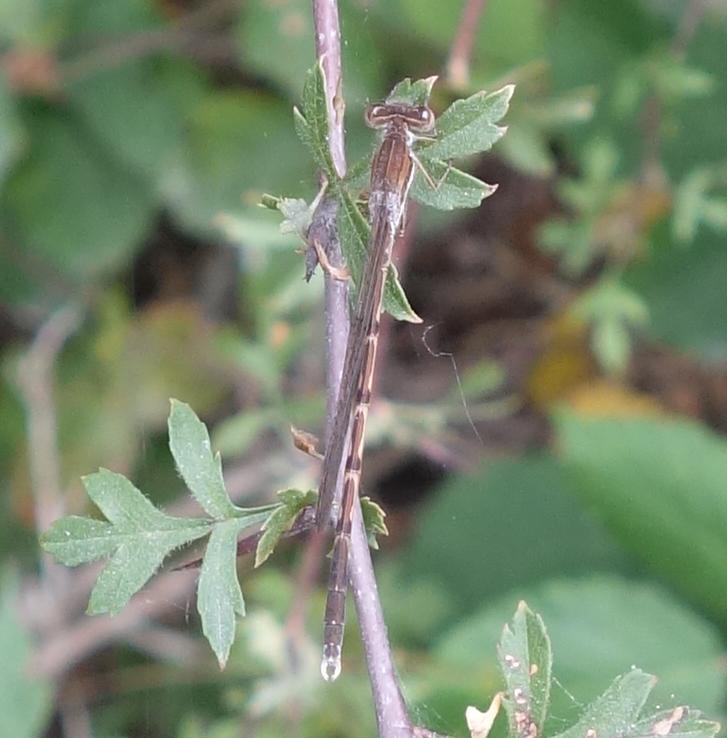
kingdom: Animalia
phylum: Arthropoda
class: Insecta
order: Odonata
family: Lestidae
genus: Sympecma
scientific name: Sympecma fusca
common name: Common winter damsel
